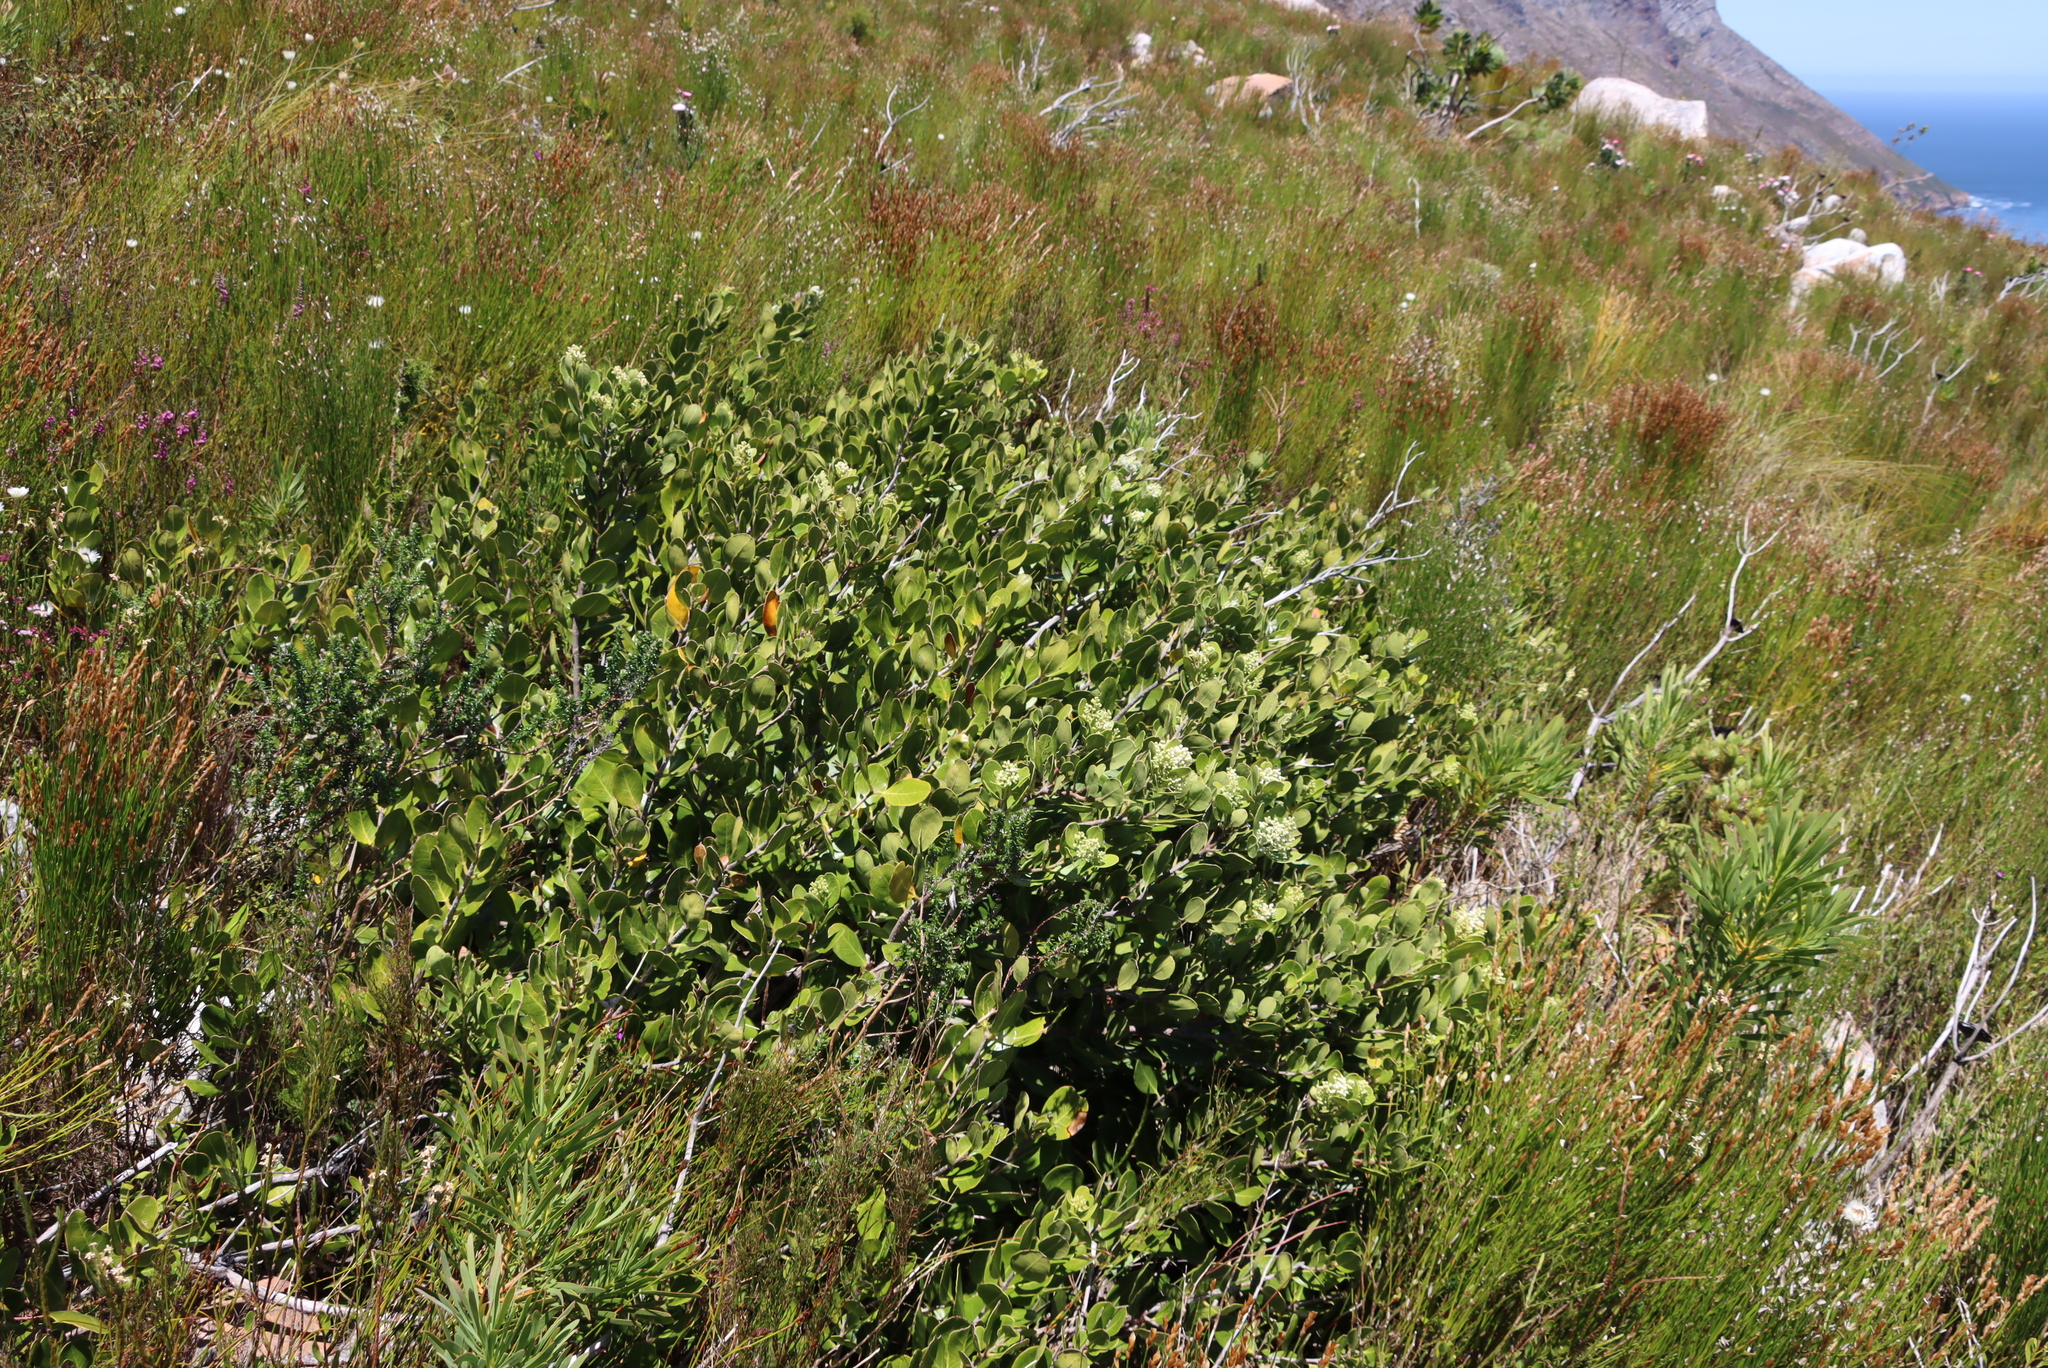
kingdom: Plantae
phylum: Tracheophyta
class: Magnoliopsida
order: Lamiales
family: Oleaceae
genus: Olea
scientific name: Olea capensis
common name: Black ironwood
